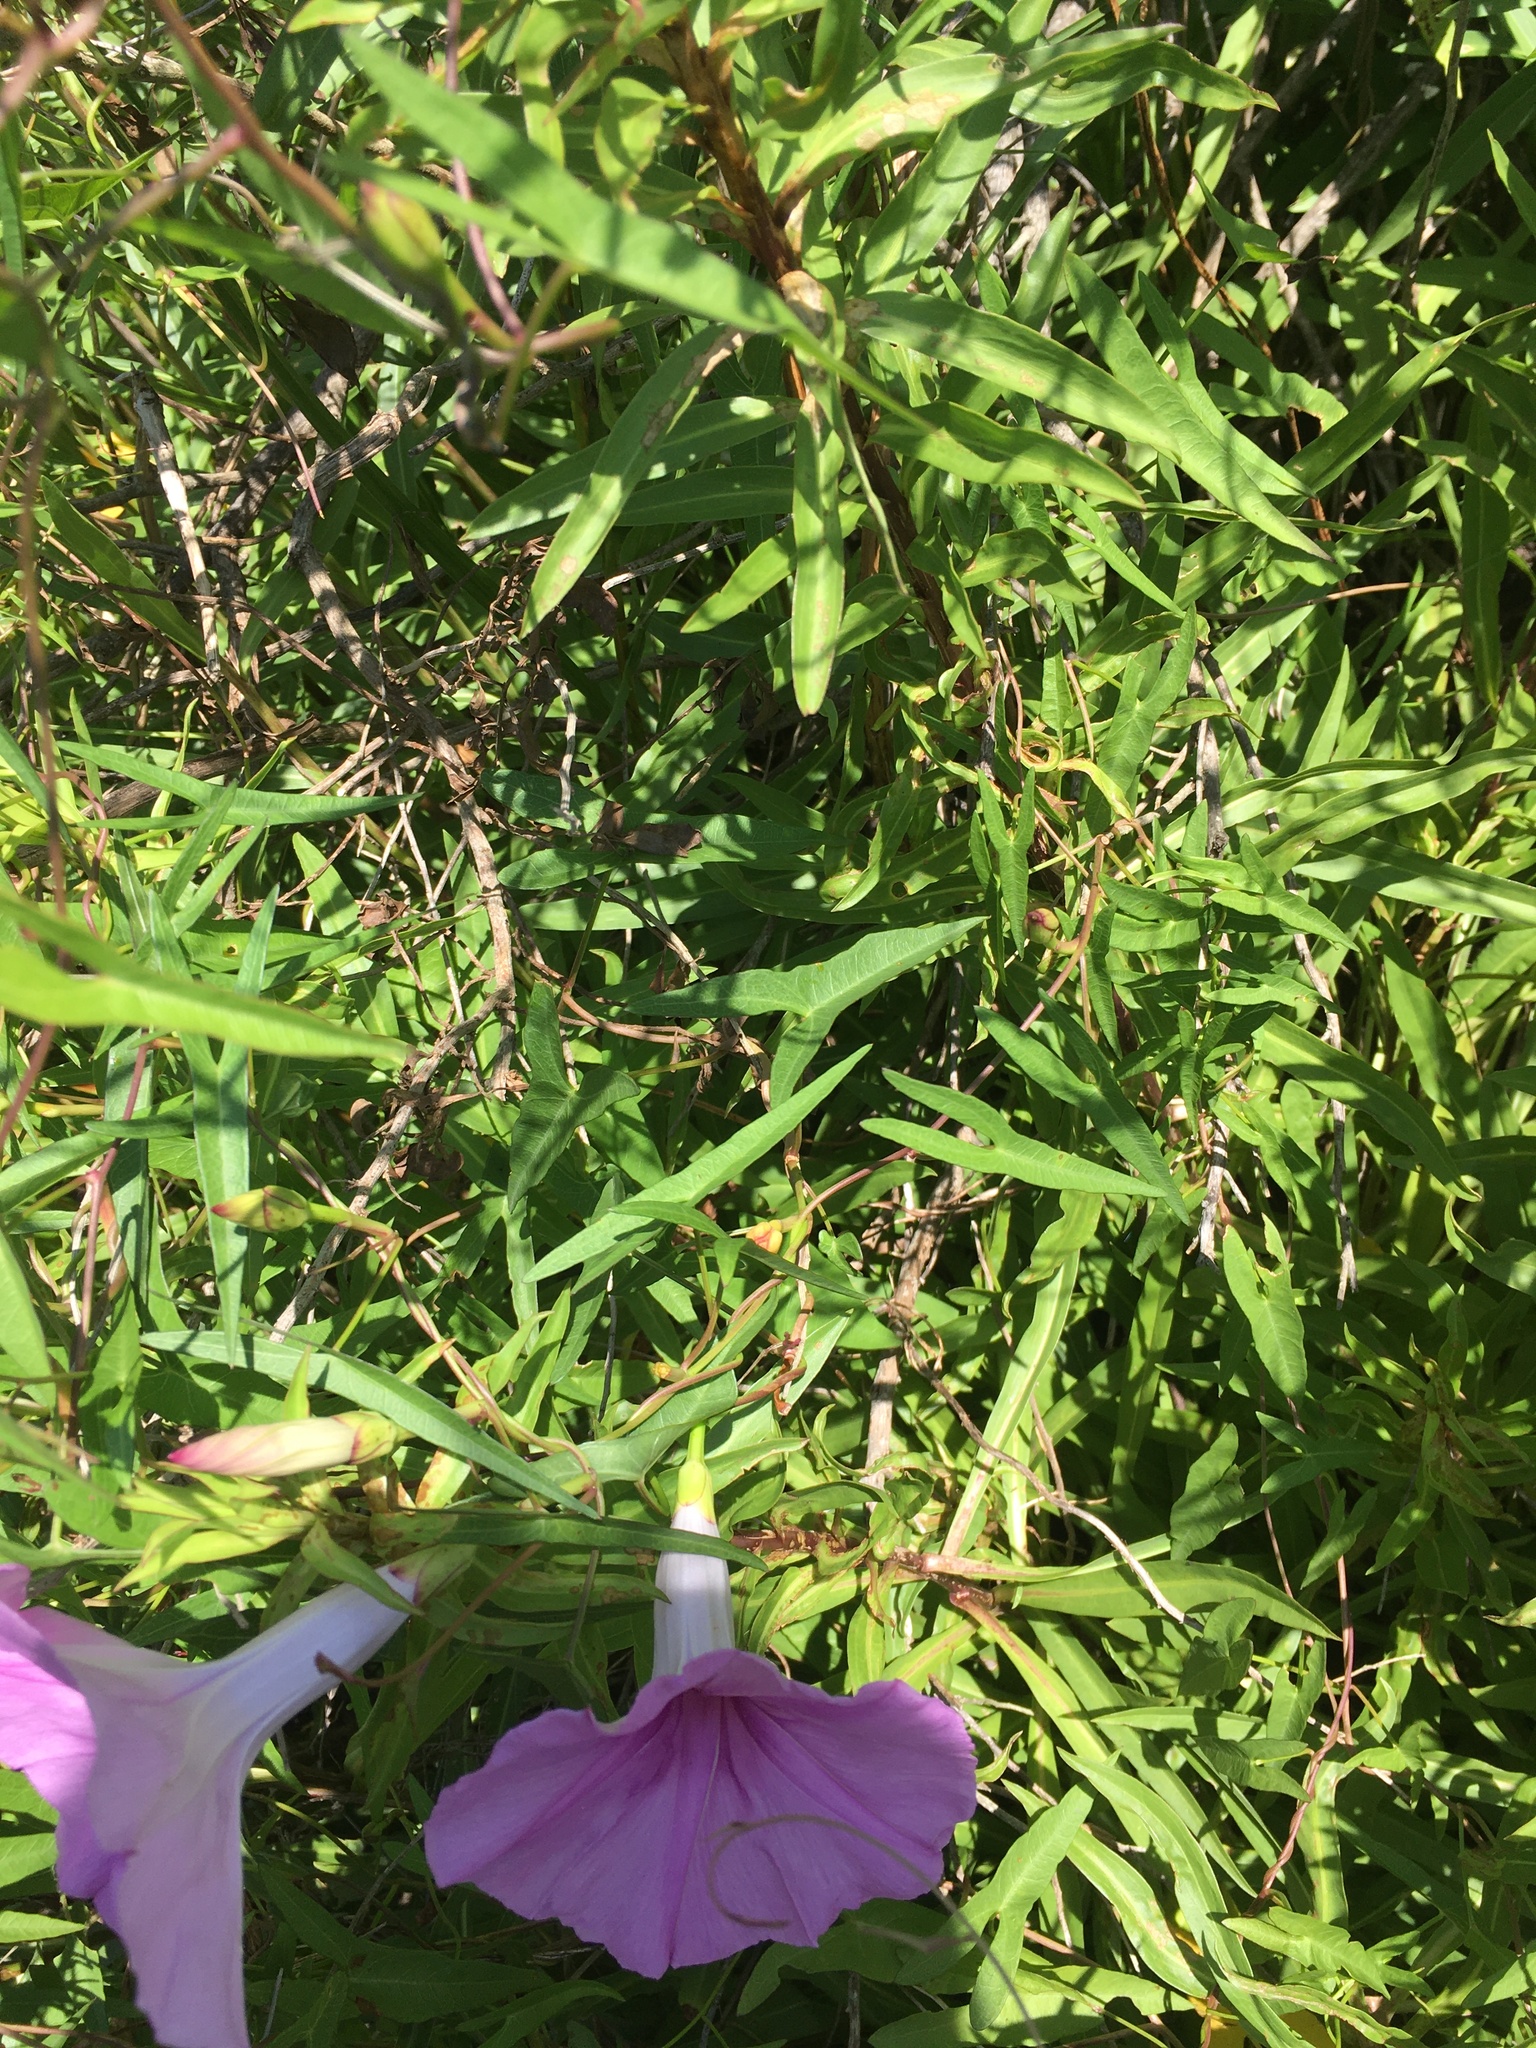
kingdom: Plantae
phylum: Tracheophyta
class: Magnoliopsida
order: Solanales
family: Convolvulaceae
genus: Ipomoea
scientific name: Ipomoea sagittata
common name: Saltmarsh morning glory
